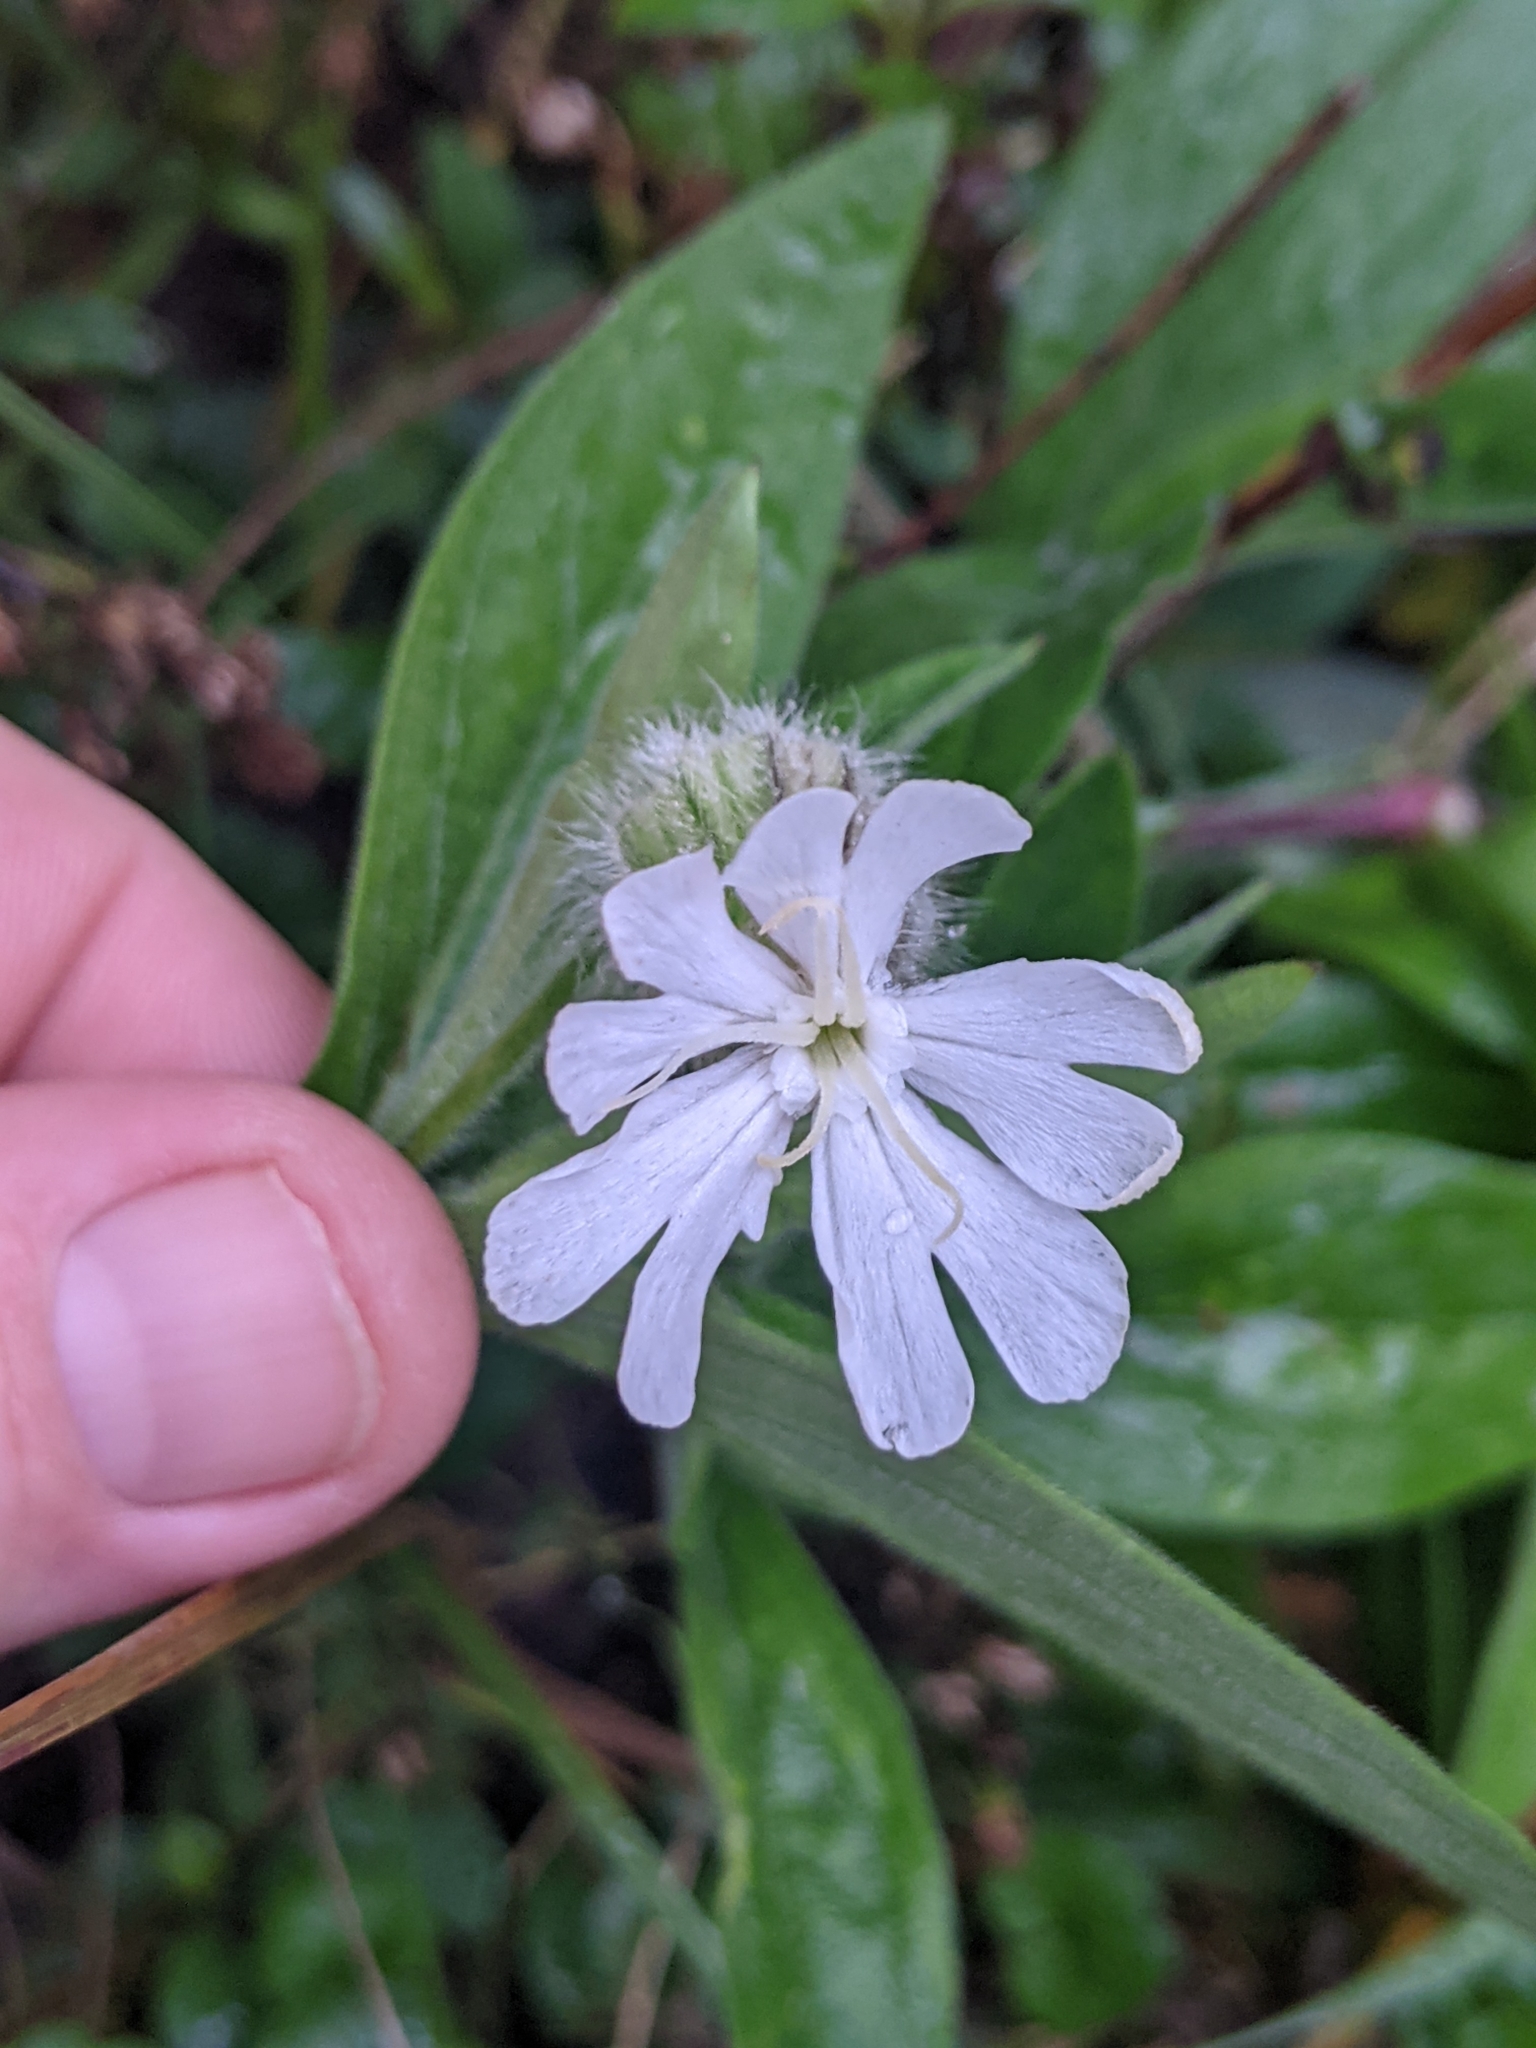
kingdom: Plantae
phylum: Tracheophyta
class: Magnoliopsida
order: Caryophyllales
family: Caryophyllaceae
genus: Silene
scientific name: Silene latifolia
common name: White campion
